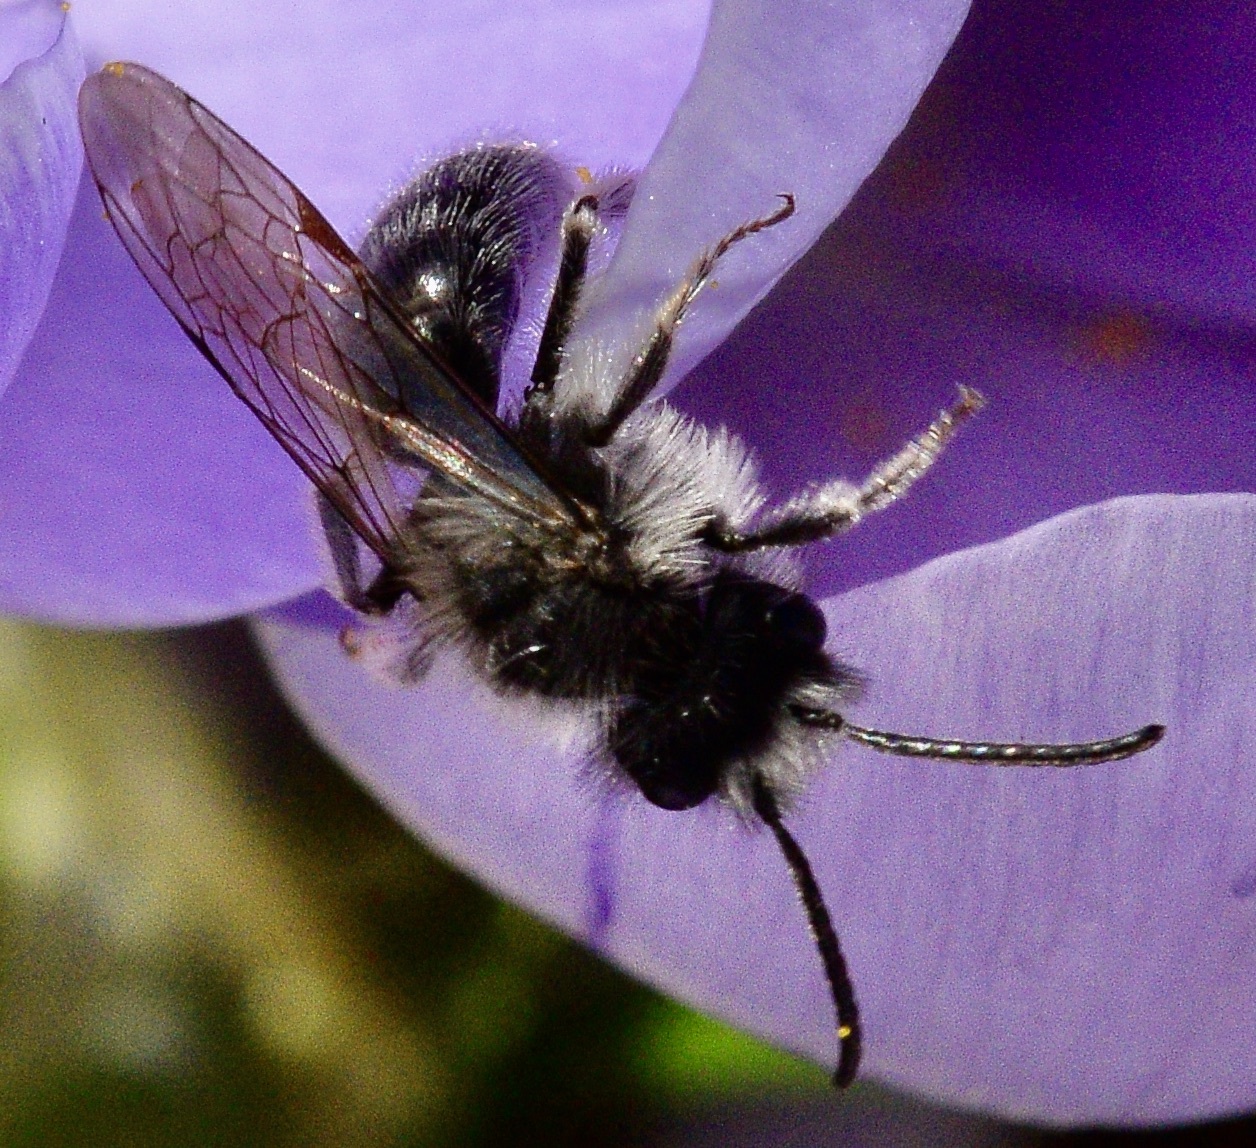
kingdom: Animalia
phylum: Arthropoda
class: Insecta
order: Hymenoptera
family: Andrenidae
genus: Andrena
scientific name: Andrena frigida
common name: Frigid mining bee
